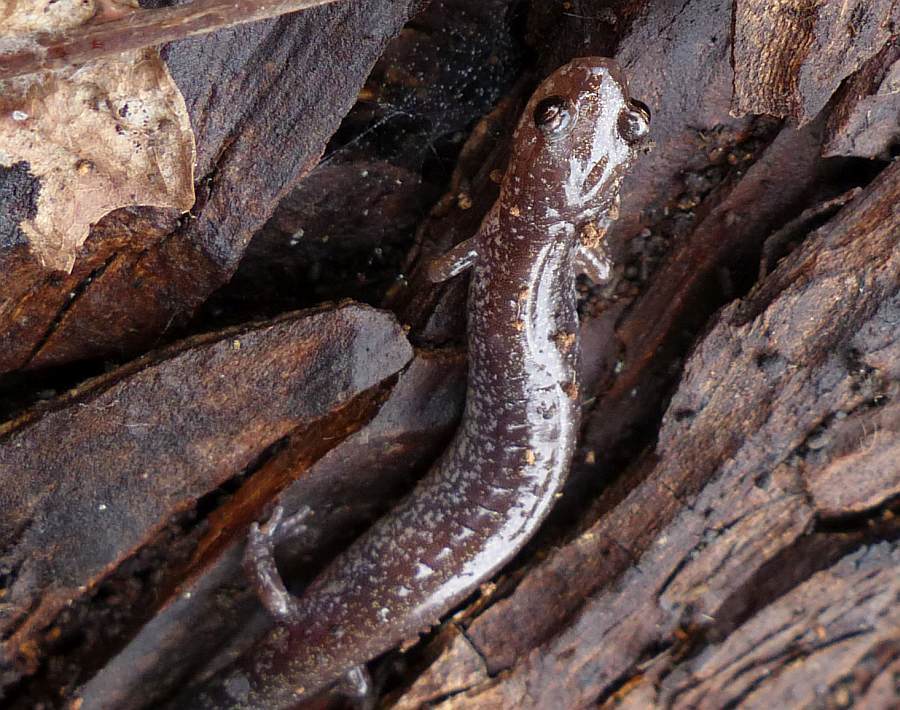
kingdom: Animalia
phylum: Chordata
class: Amphibia
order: Caudata
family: Plethodontidae
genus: Plethodon
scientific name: Plethodon cinereus
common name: Redback salamander
